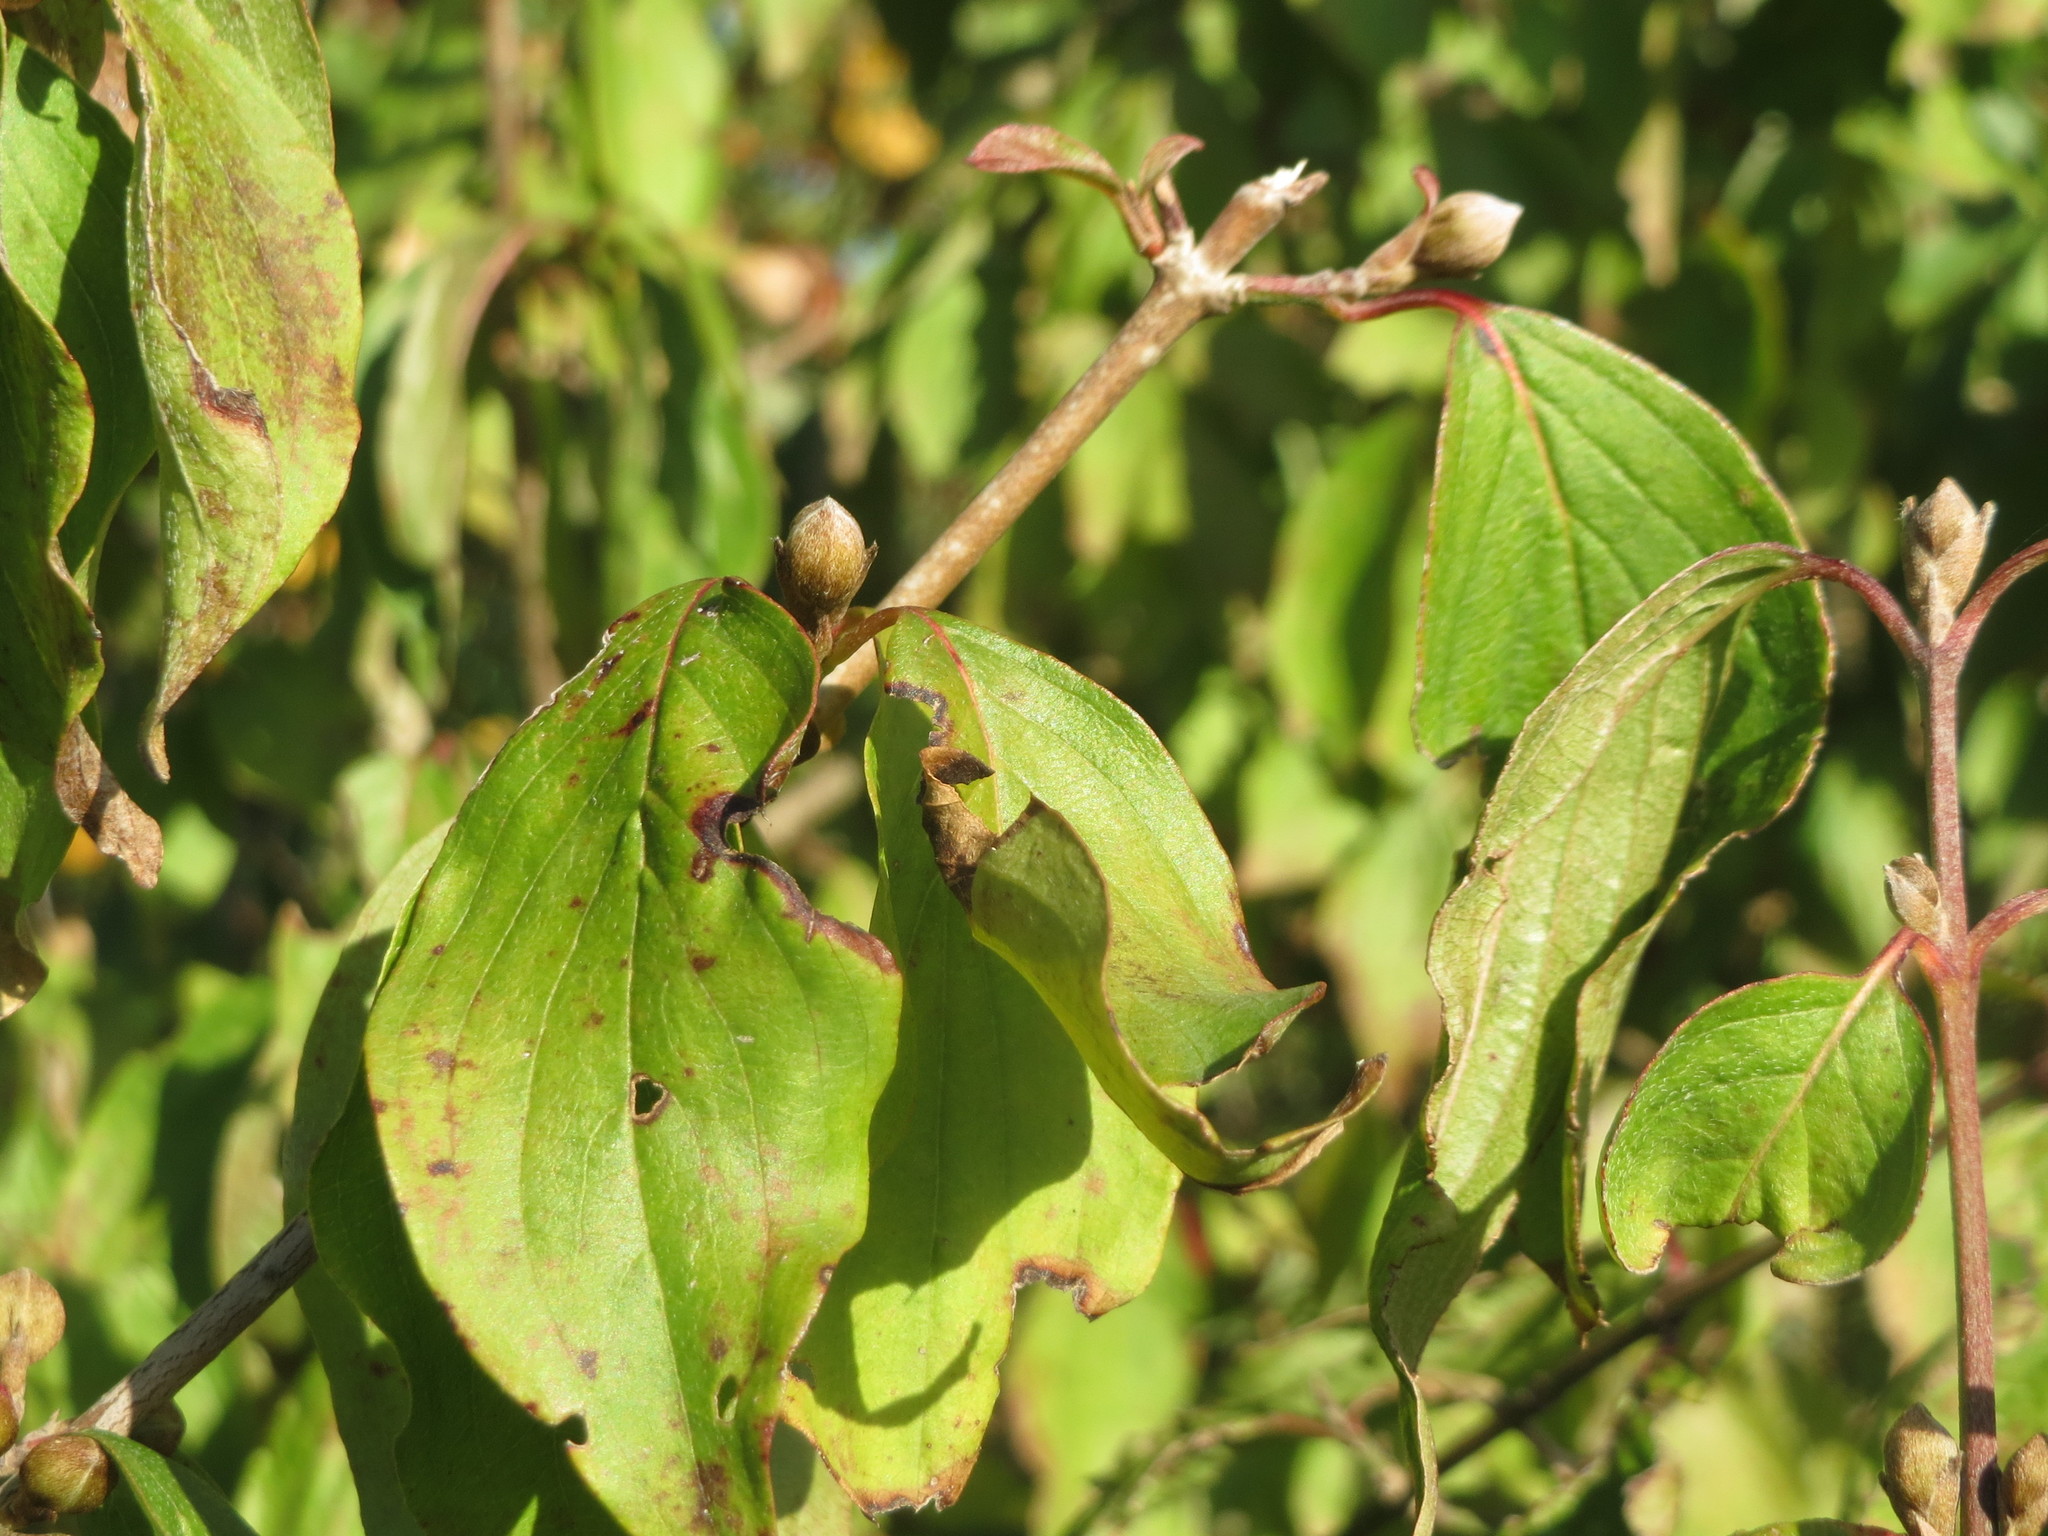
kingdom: Plantae
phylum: Tracheophyta
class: Magnoliopsida
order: Cornales
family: Cornaceae
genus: Cornus
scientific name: Cornus mas
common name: Cornelian-cherry
